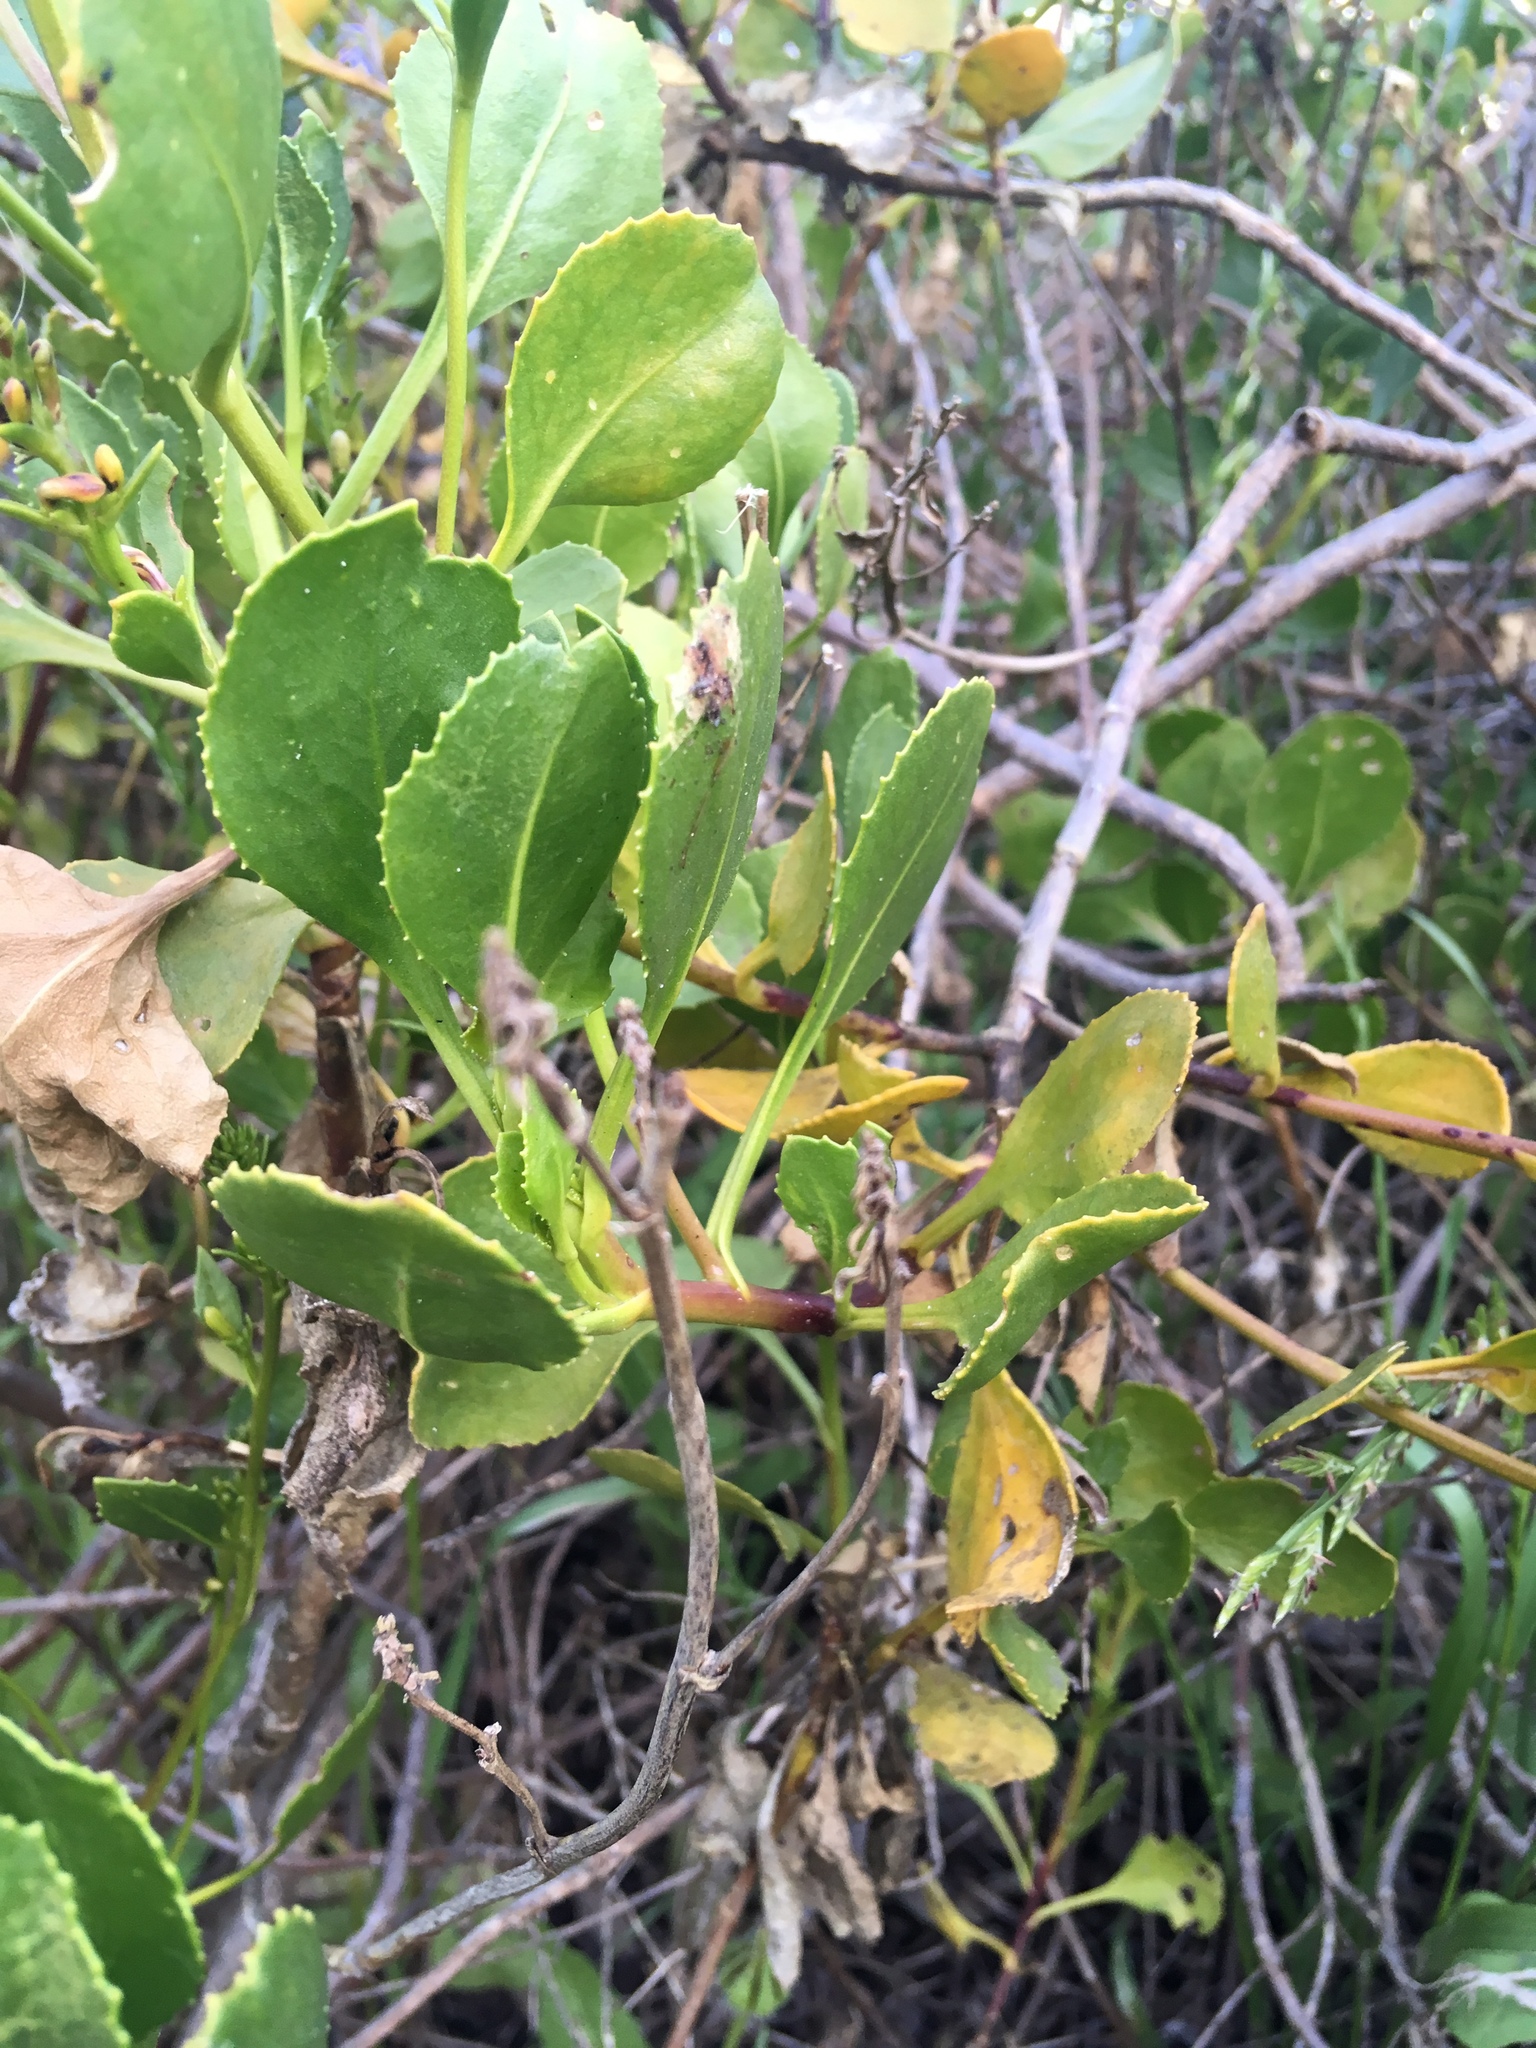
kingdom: Plantae
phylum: Tracheophyta
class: Magnoliopsida
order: Asterales
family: Goodeniaceae
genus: Scaevola
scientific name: Scaevola crassifolia
